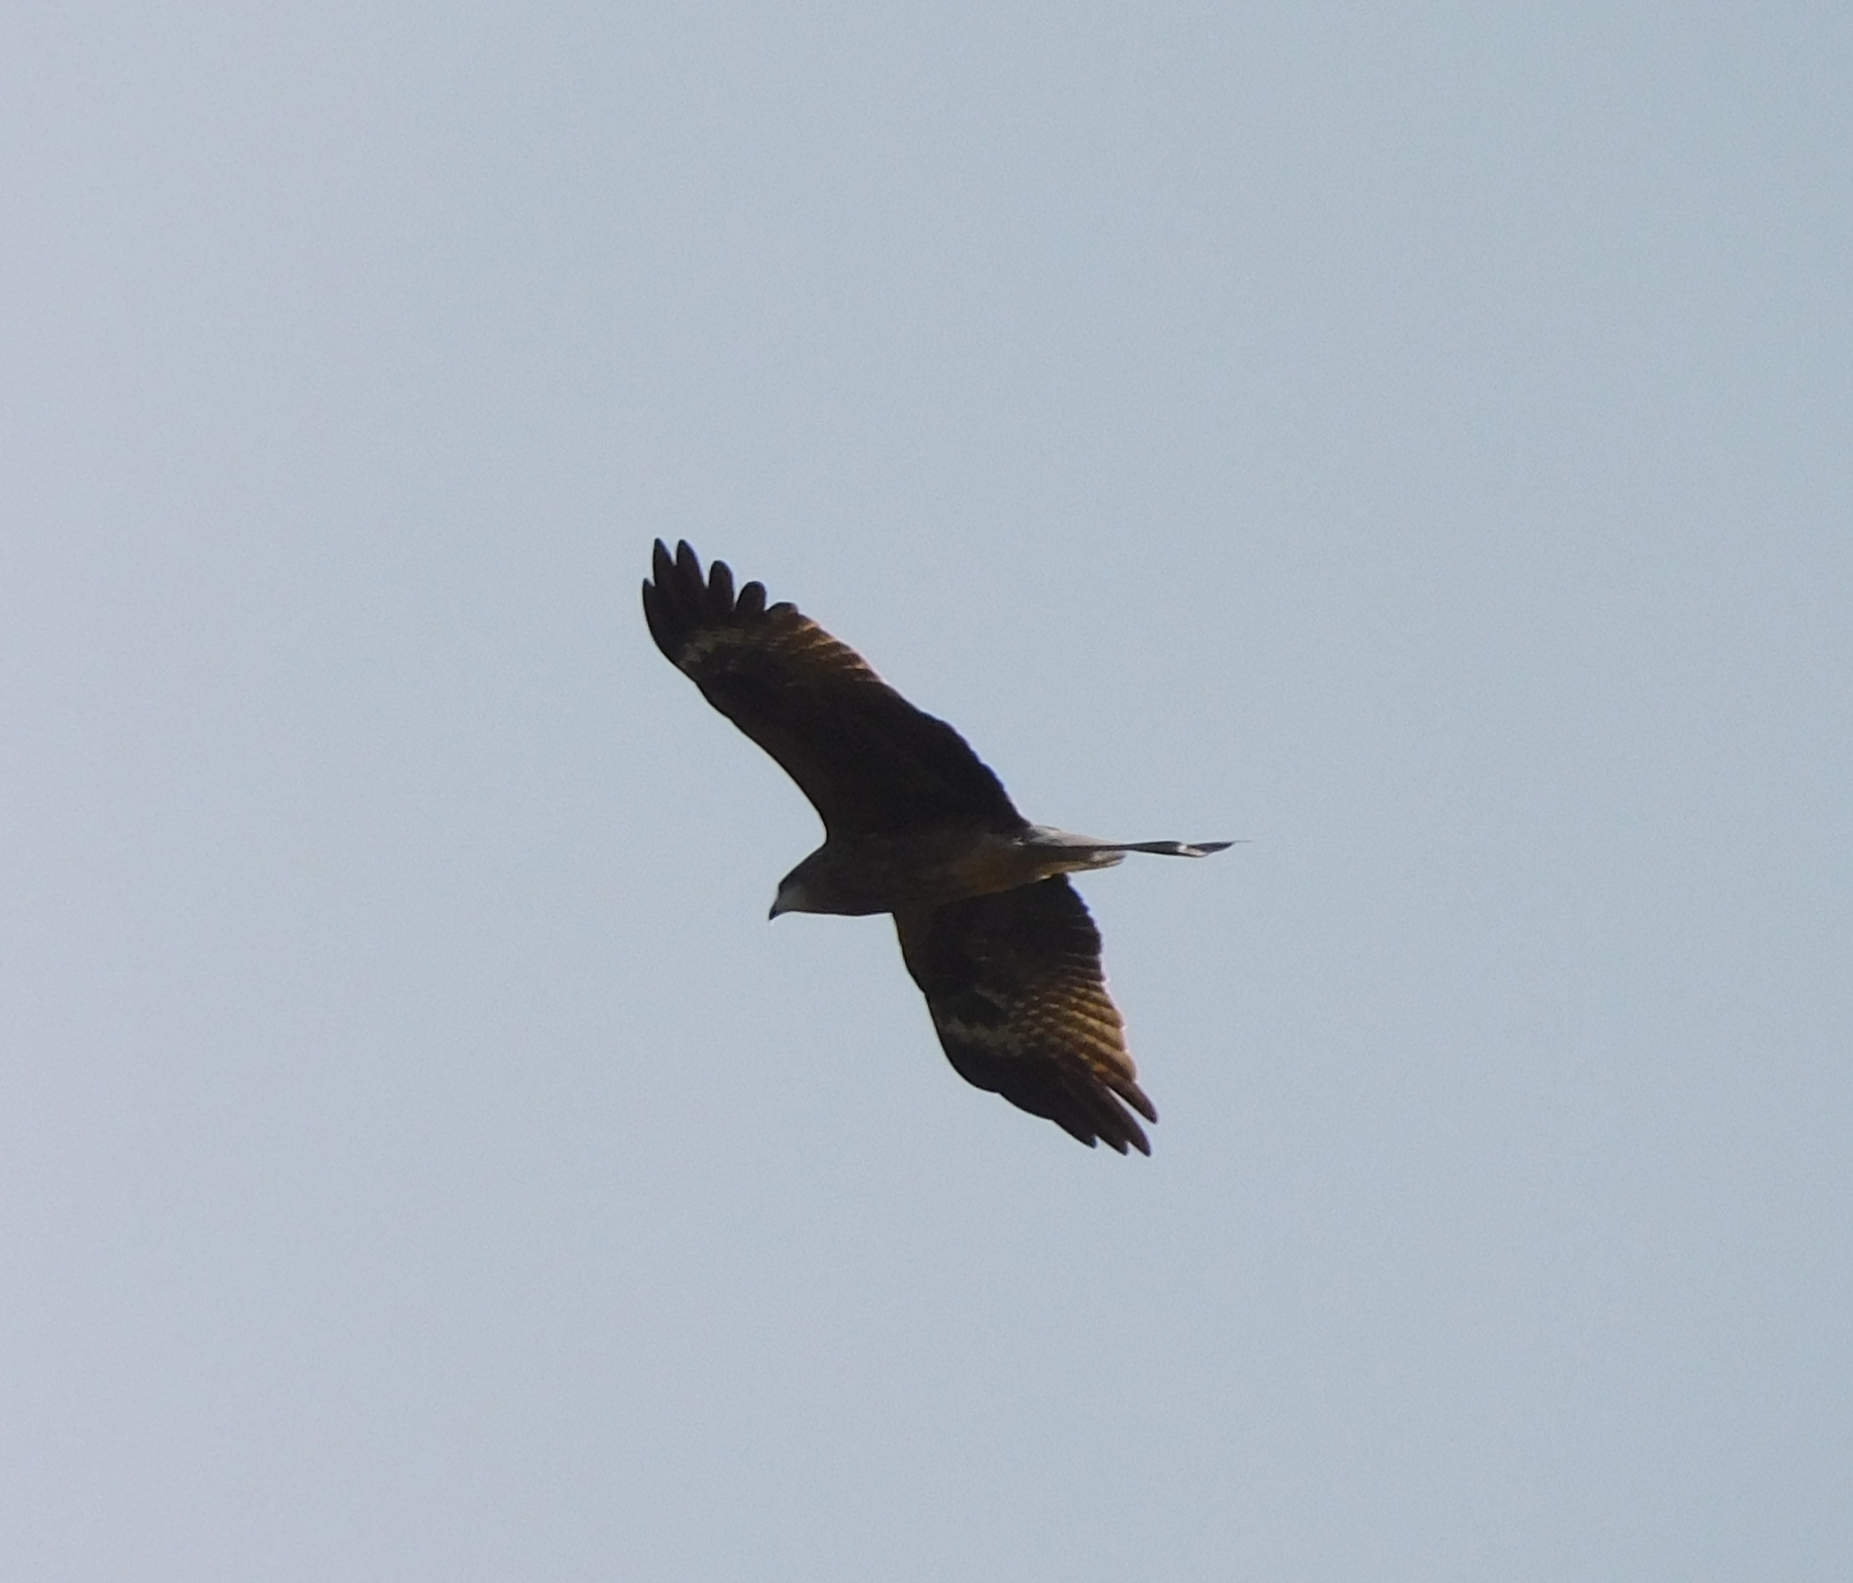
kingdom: Animalia
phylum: Chordata
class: Aves
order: Accipitriformes
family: Accipitridae
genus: Milvus
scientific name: Milvus migrans
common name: Black kite
